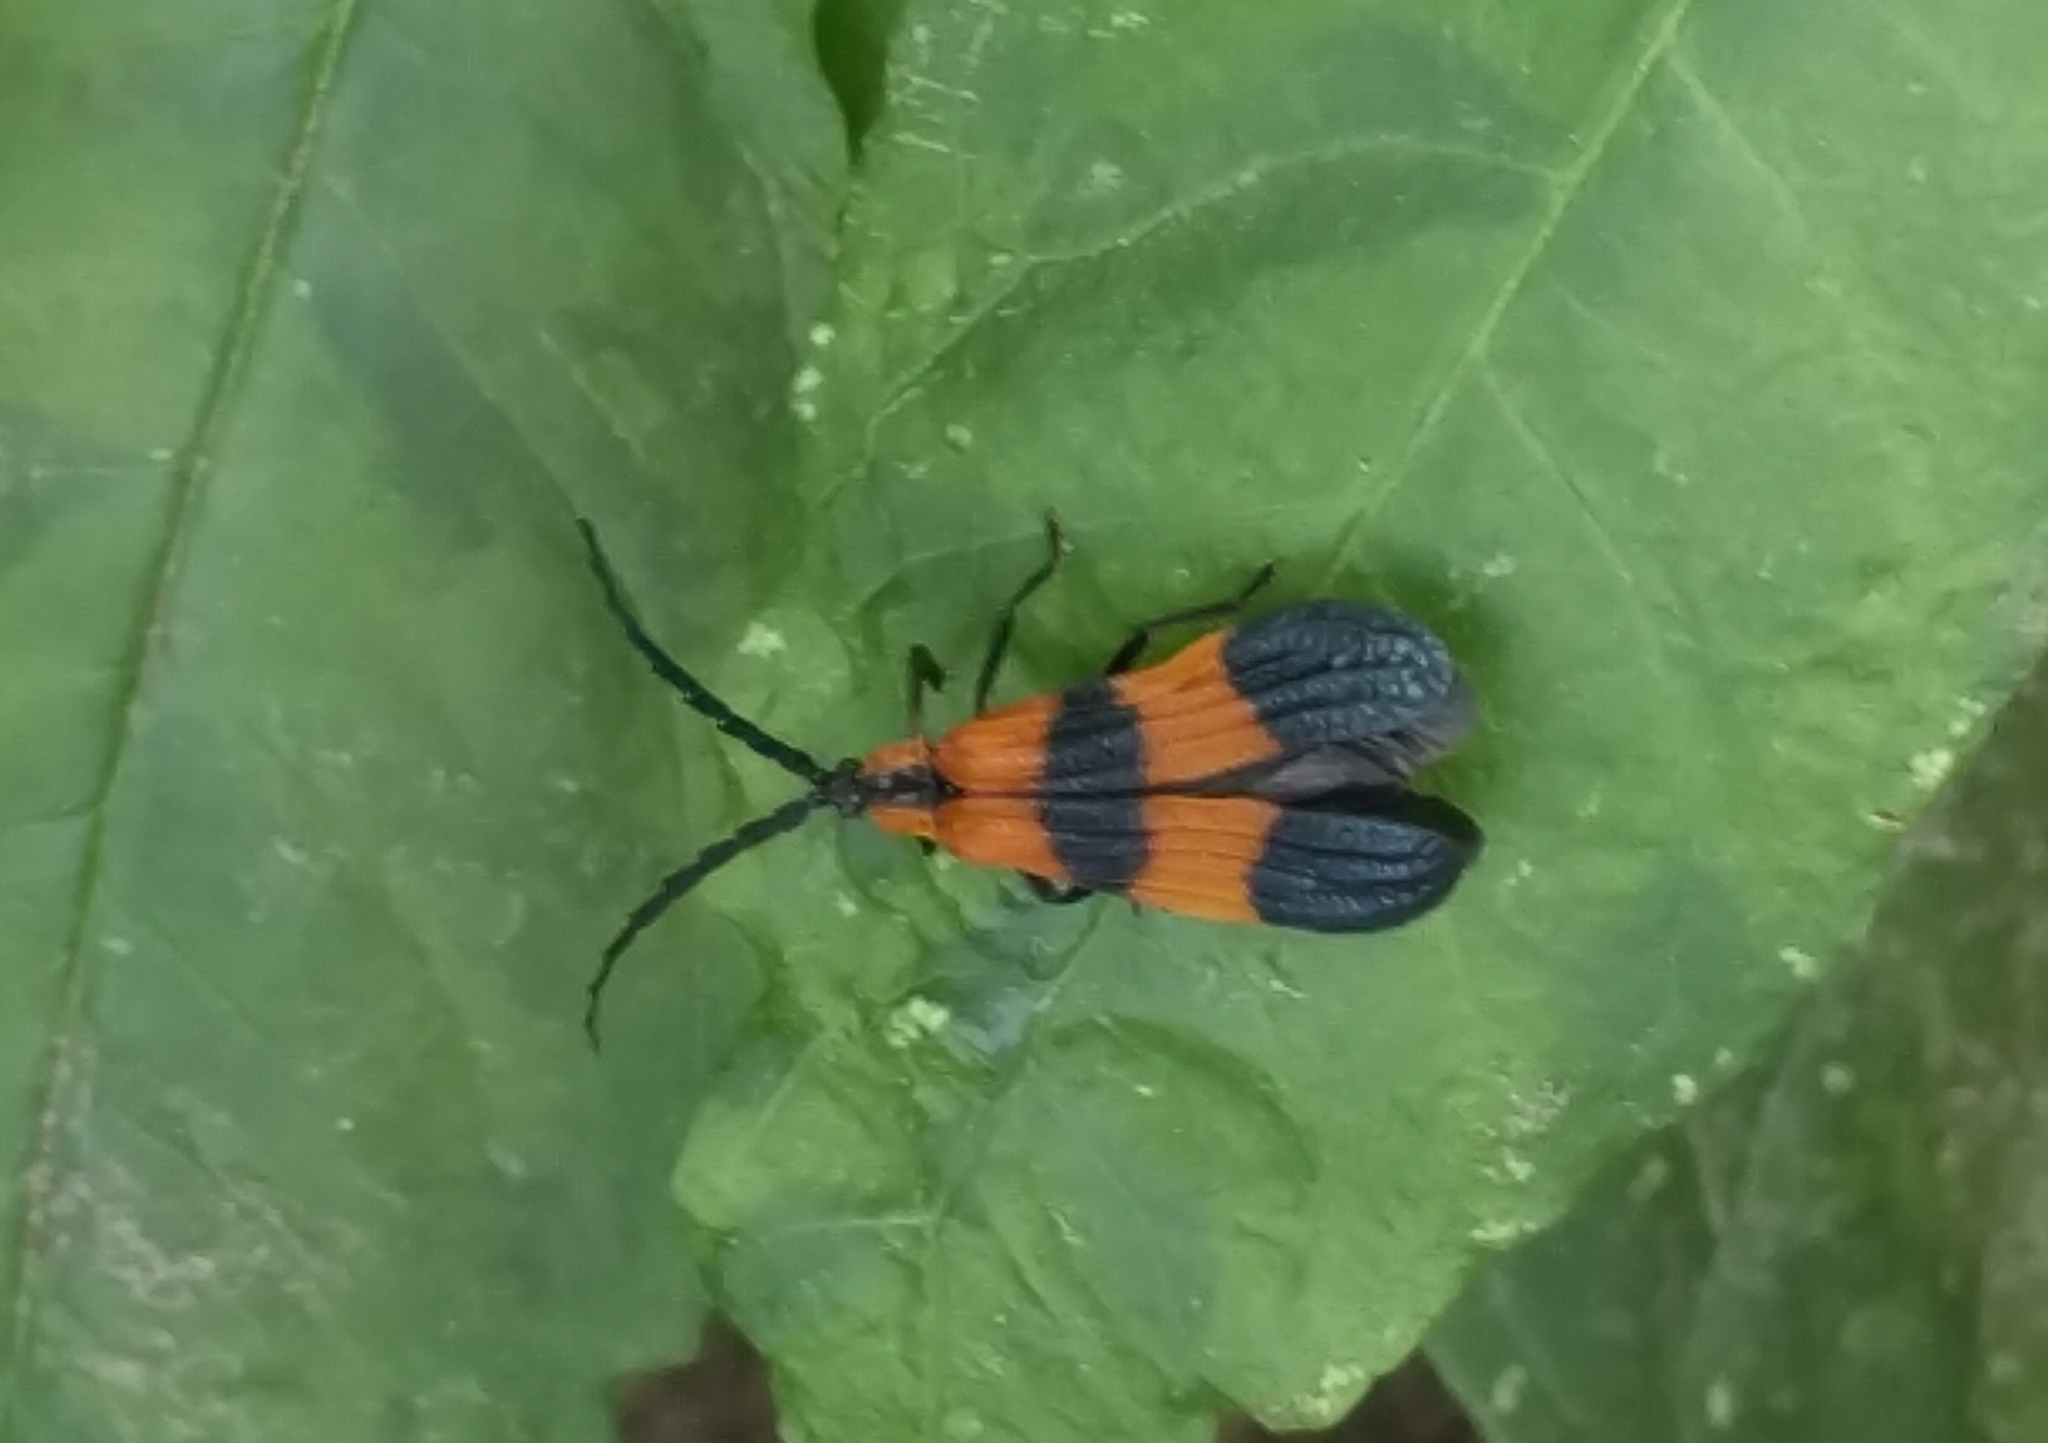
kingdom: Animalia
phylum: Arthropoda
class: Insecta
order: Coleoptera
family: Lycidae
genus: Calopteron
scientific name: Calopteron terminale
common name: End band net-winged beetle
